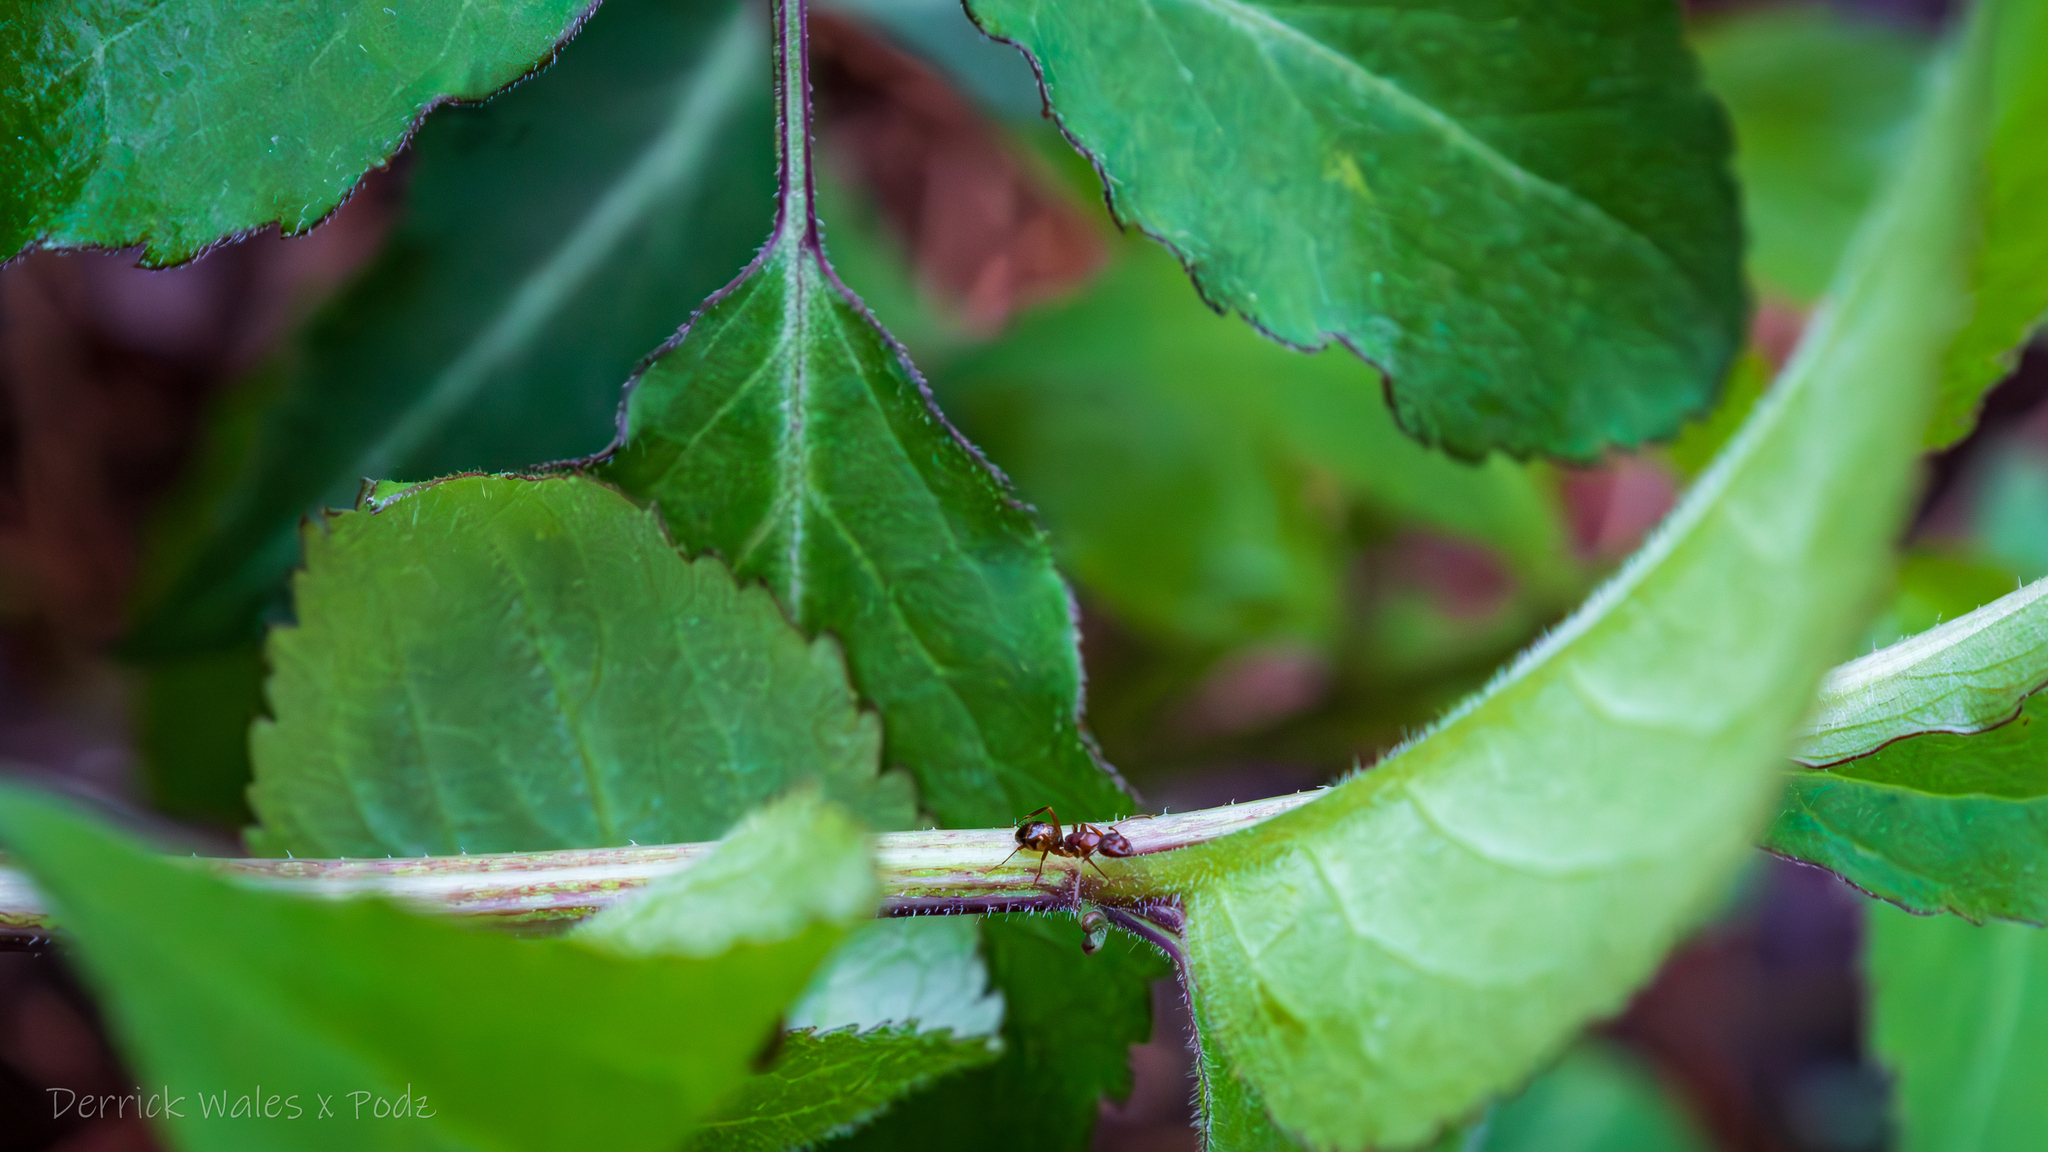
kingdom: Animalia
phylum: Arthropoda
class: Insecta
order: Hymenoptera
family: Formicidae
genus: Camponotus
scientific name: Camponotus subbarbatus
